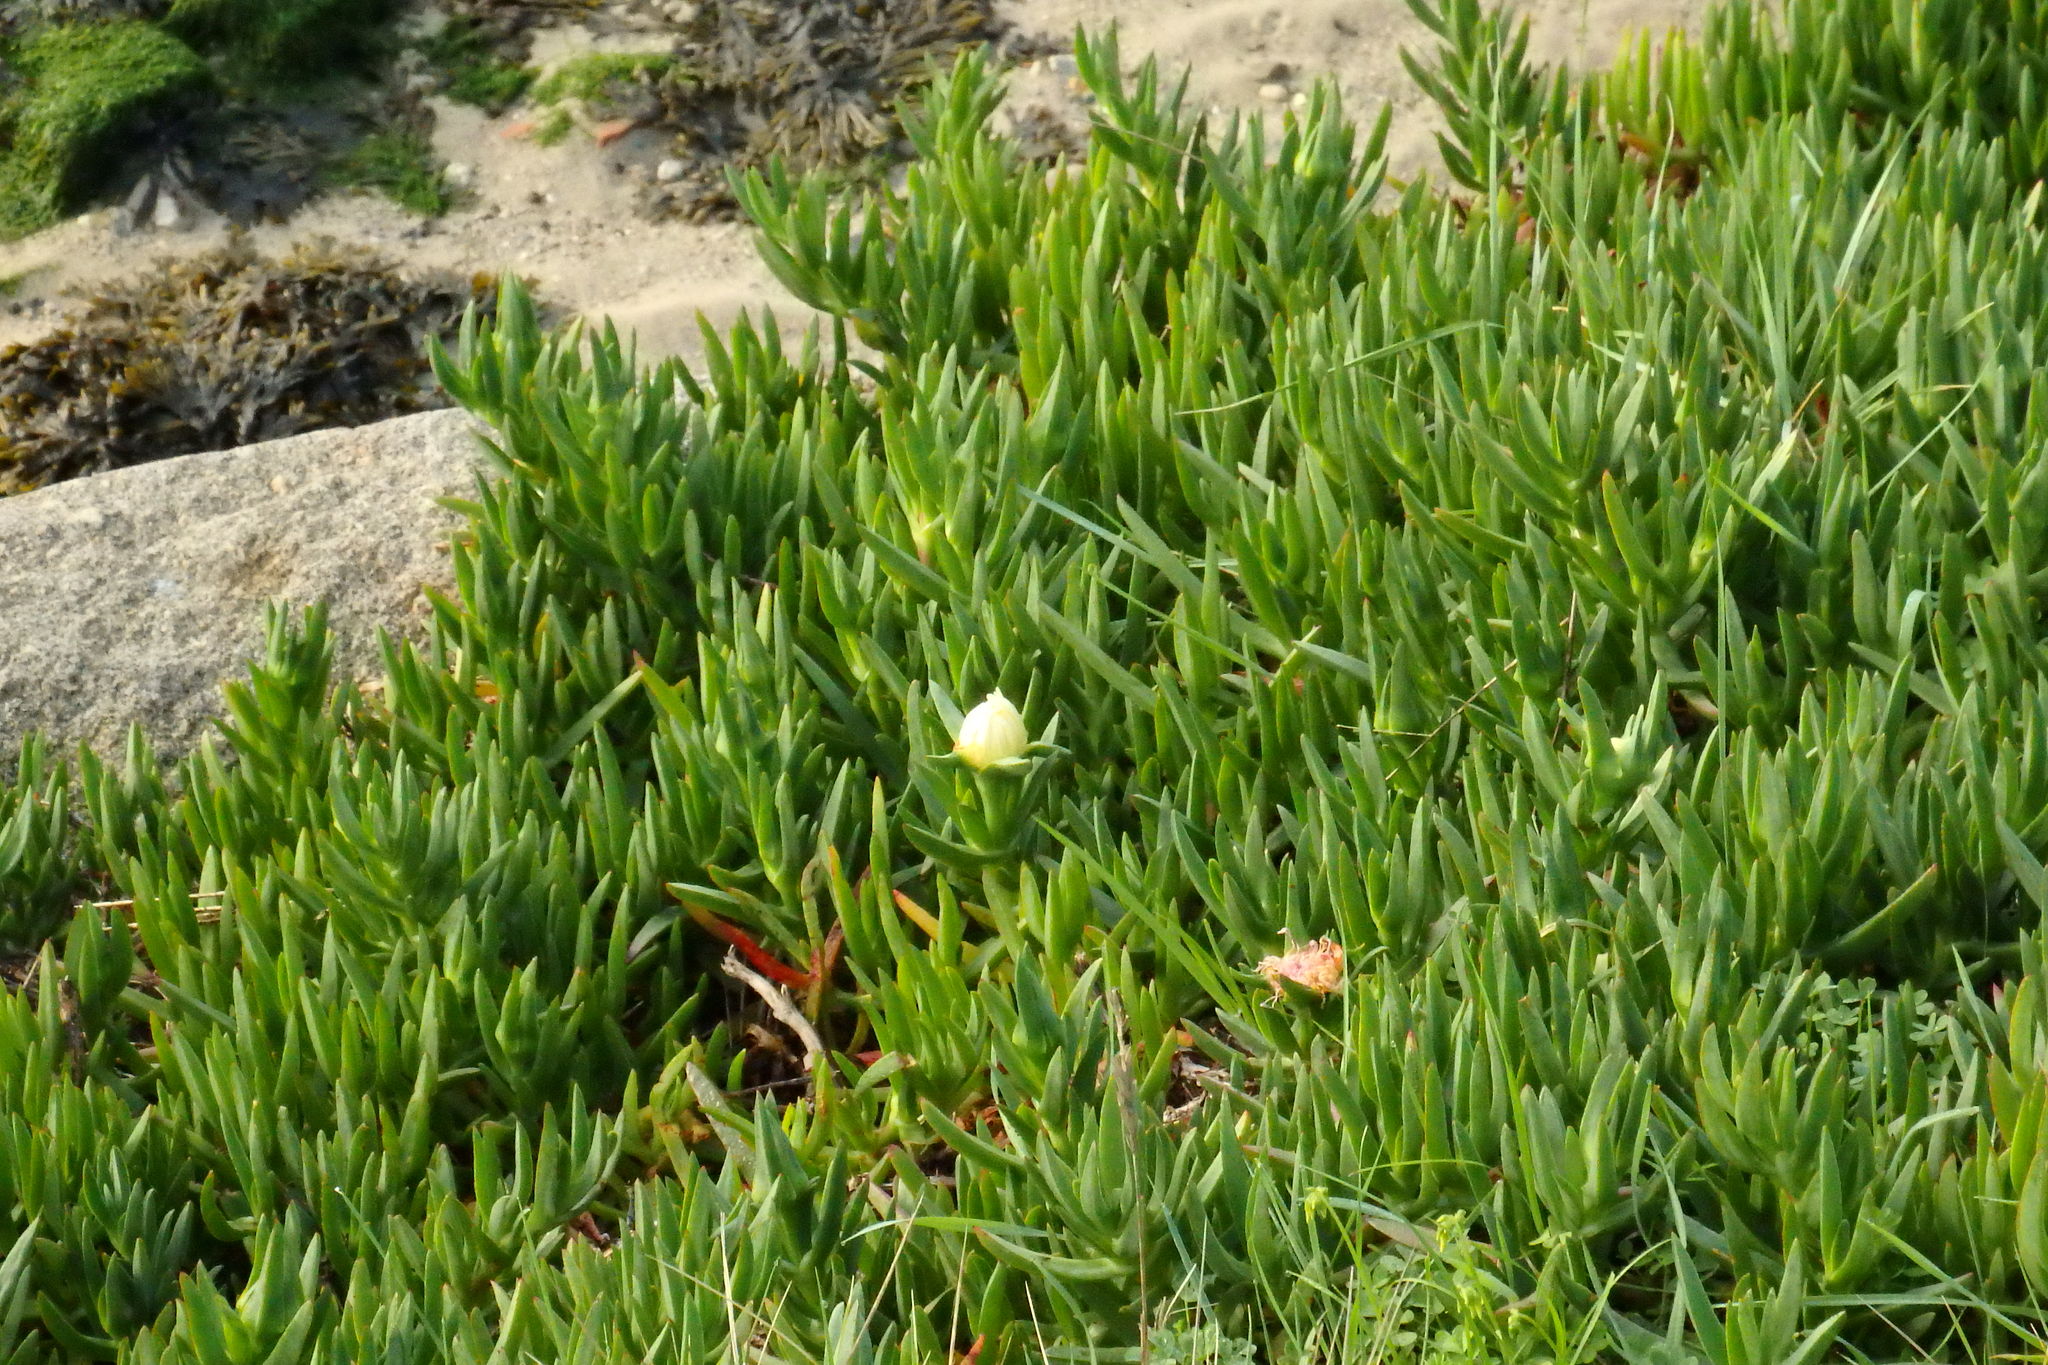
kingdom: Plantae
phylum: Tracheophyta
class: Magnoliopsida
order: Caryophyllales
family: Aizoaceae
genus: Carpobrotus
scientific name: Carpobrotus edulis
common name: Hottentot-fig
